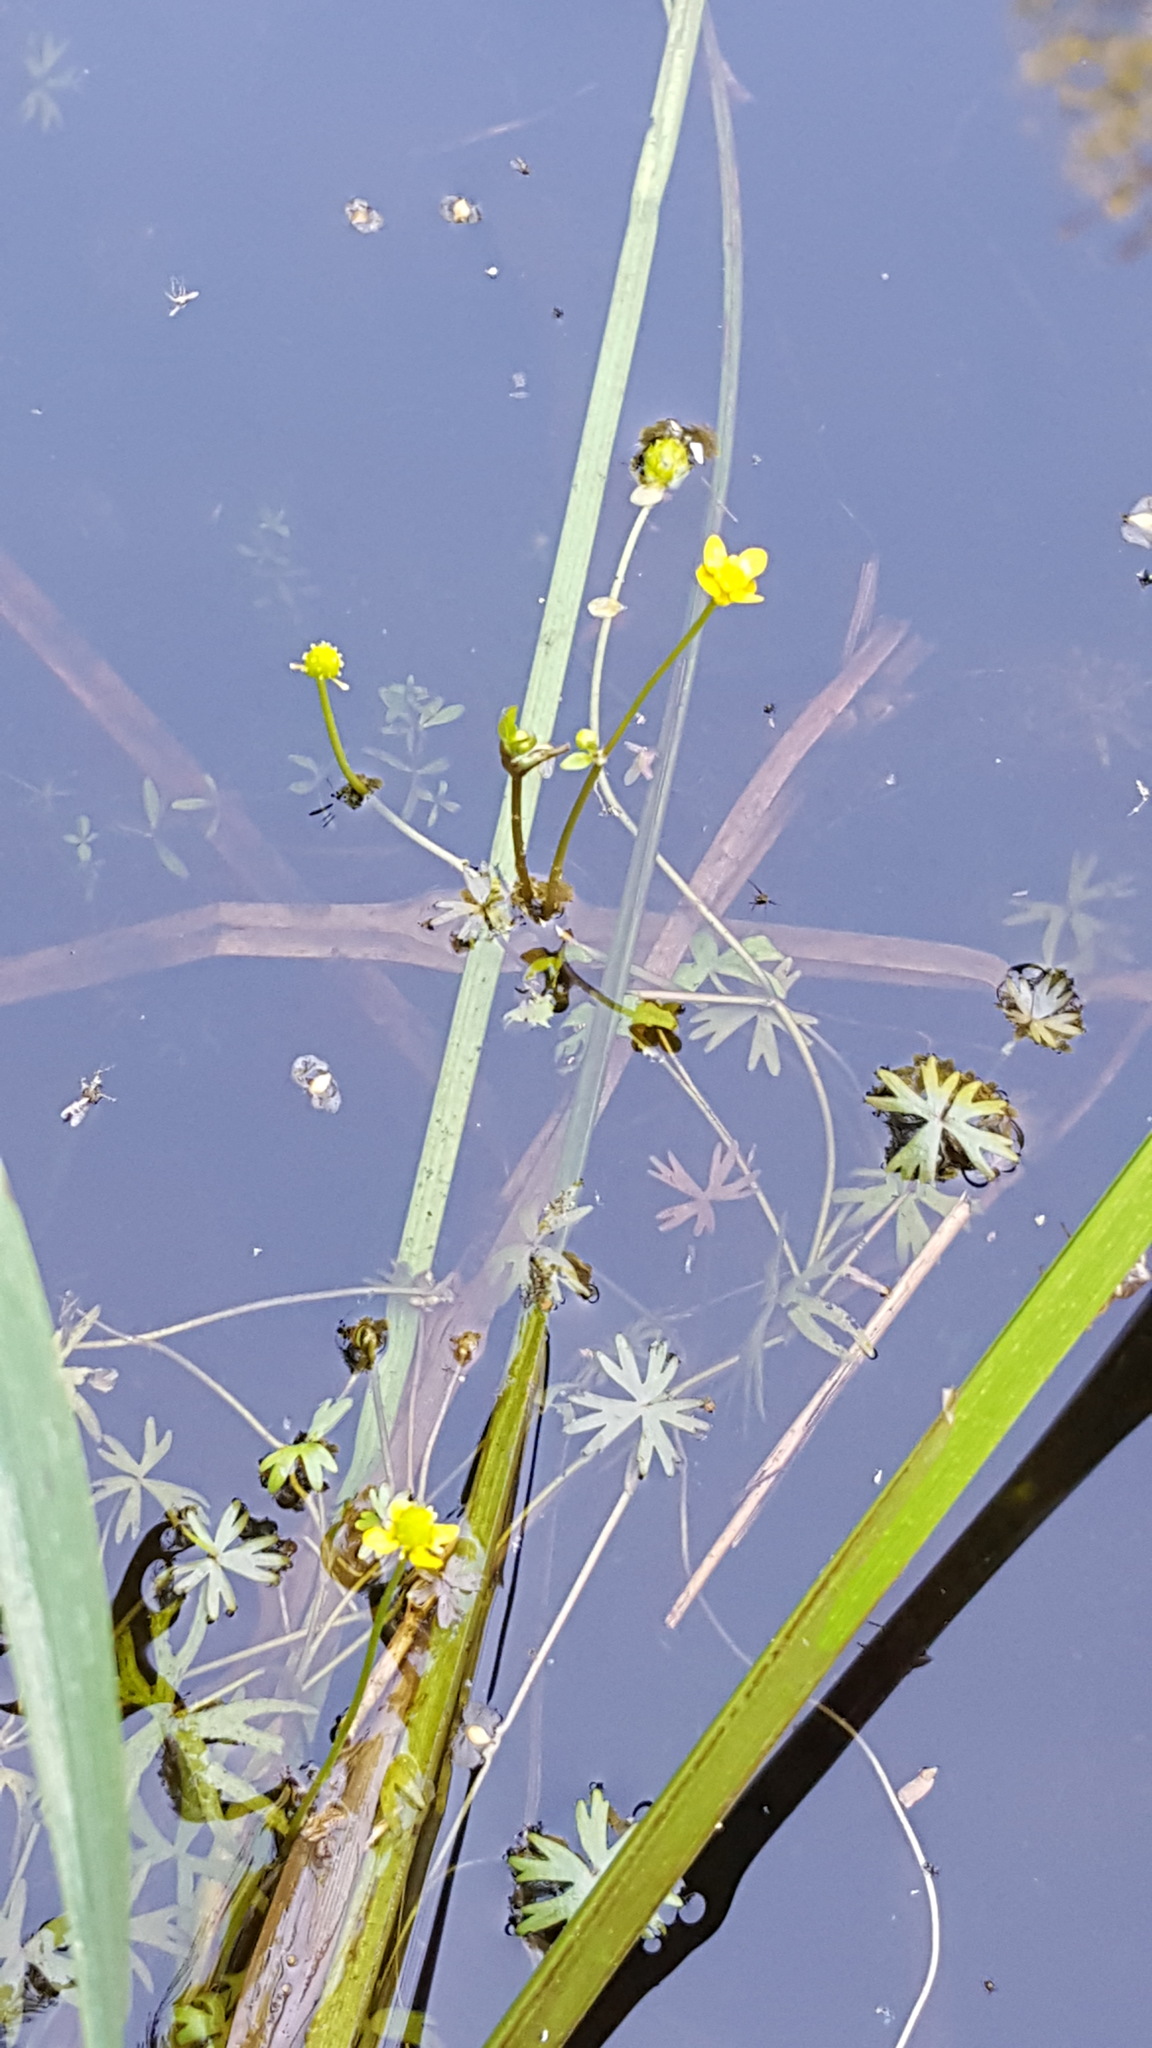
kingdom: Plantae
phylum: Tracheophyta
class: Magnoliopsida
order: Ranunculales
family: Ranunculaceae
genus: Ranunculus
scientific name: Ranunculus gmelinii
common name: Gmelin's buttercup
